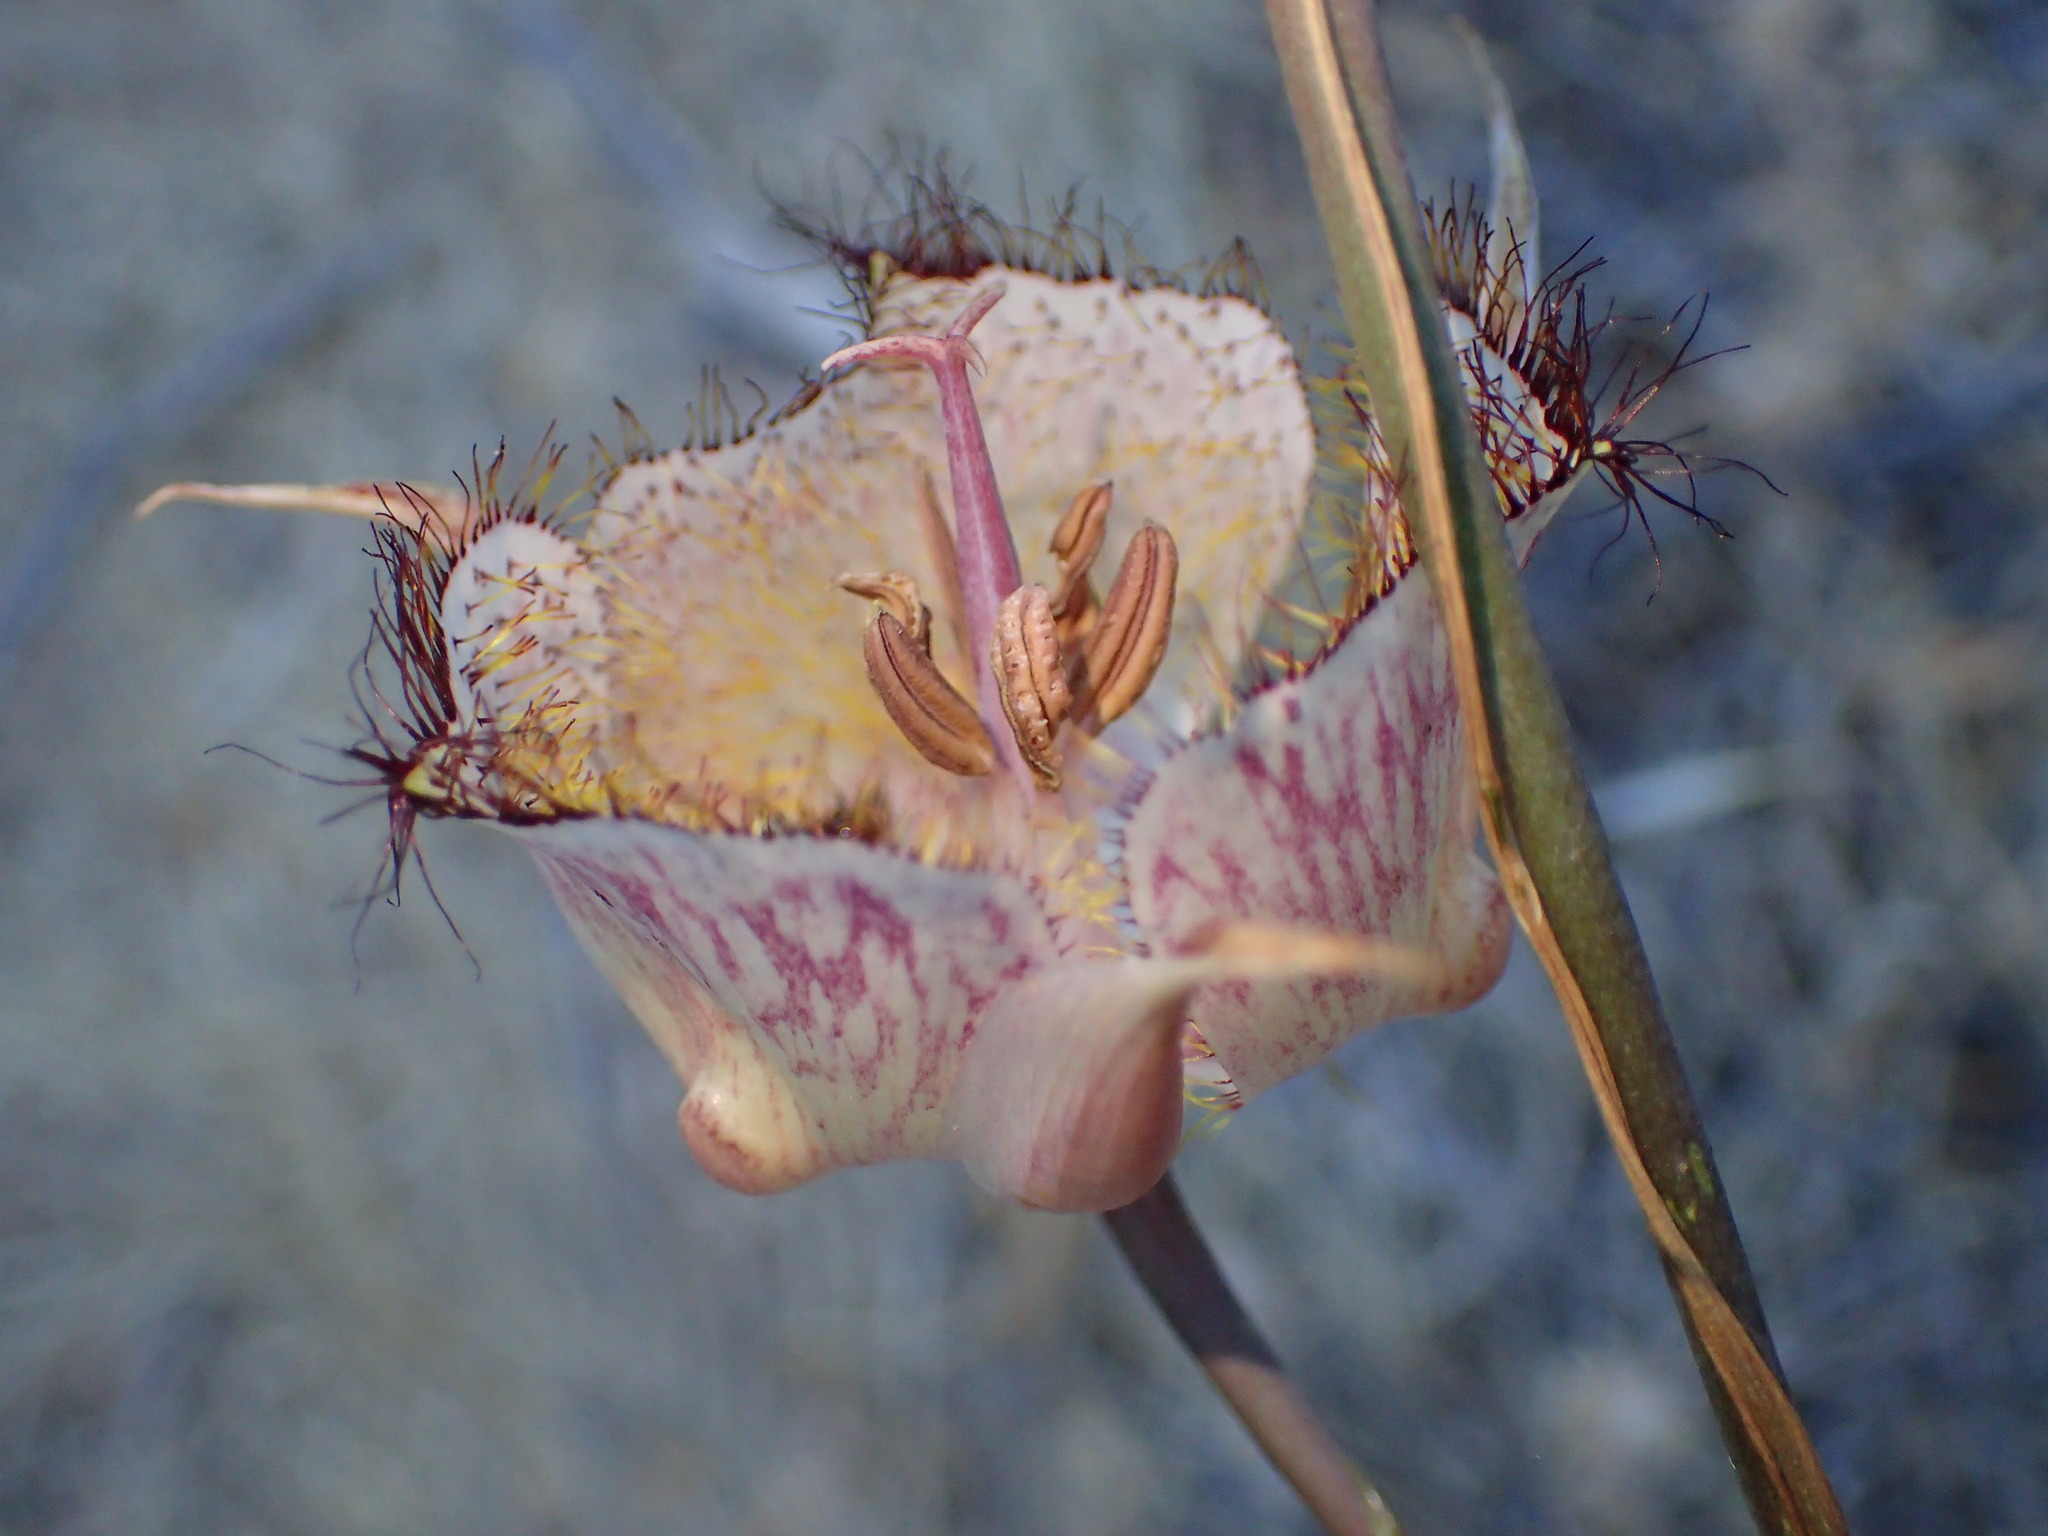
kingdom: Plantae
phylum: Tracheophyta
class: Liliopsida
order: Liliales
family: Liliaceae
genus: Calochortus
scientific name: Calochortus fimbriatus
